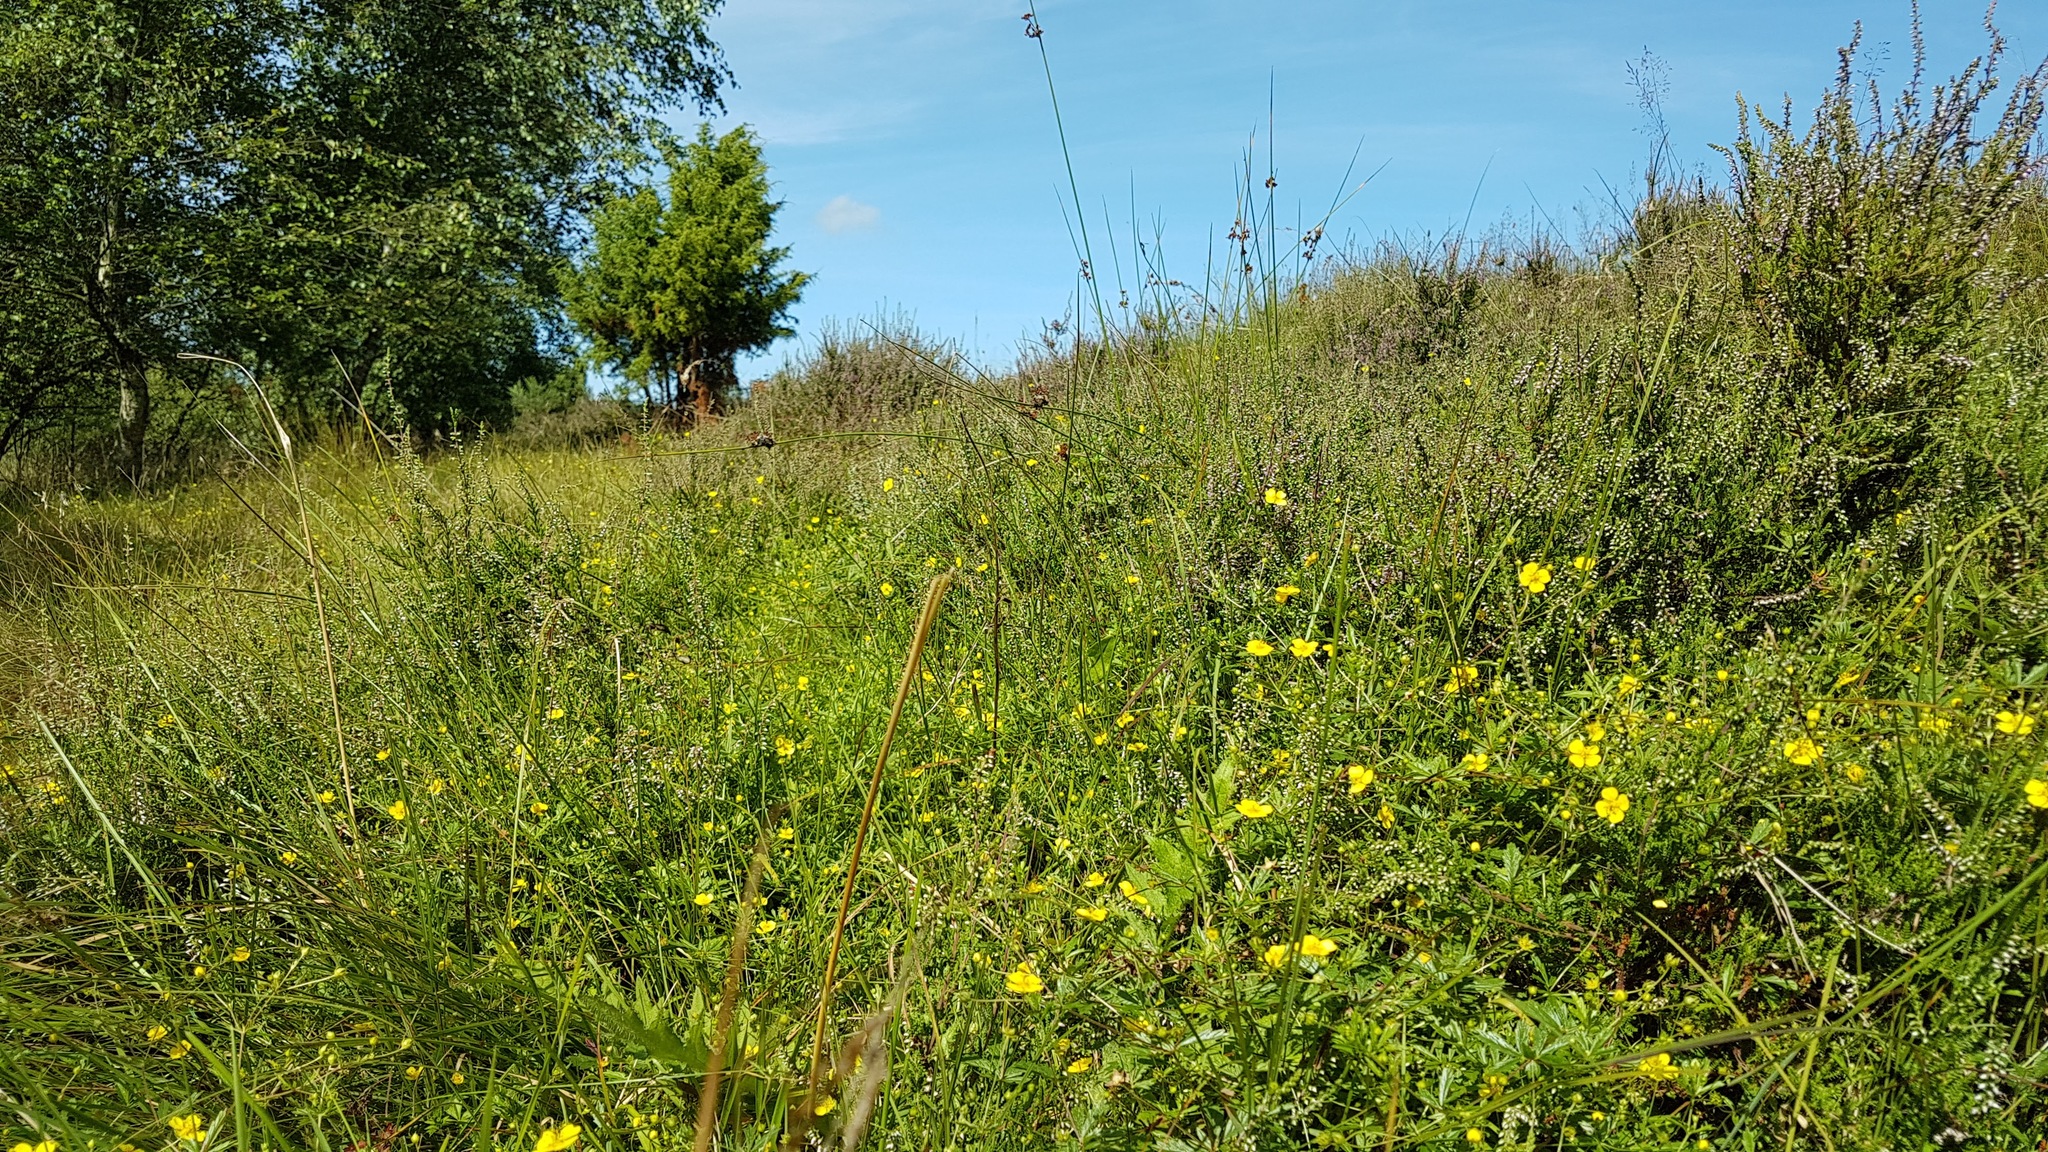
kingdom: Plantae
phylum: Tracheophyta
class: Magnoliopsida
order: Rosales
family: Rosaceae
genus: Potentilla
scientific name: Potentilla erecta
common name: Tormentil
